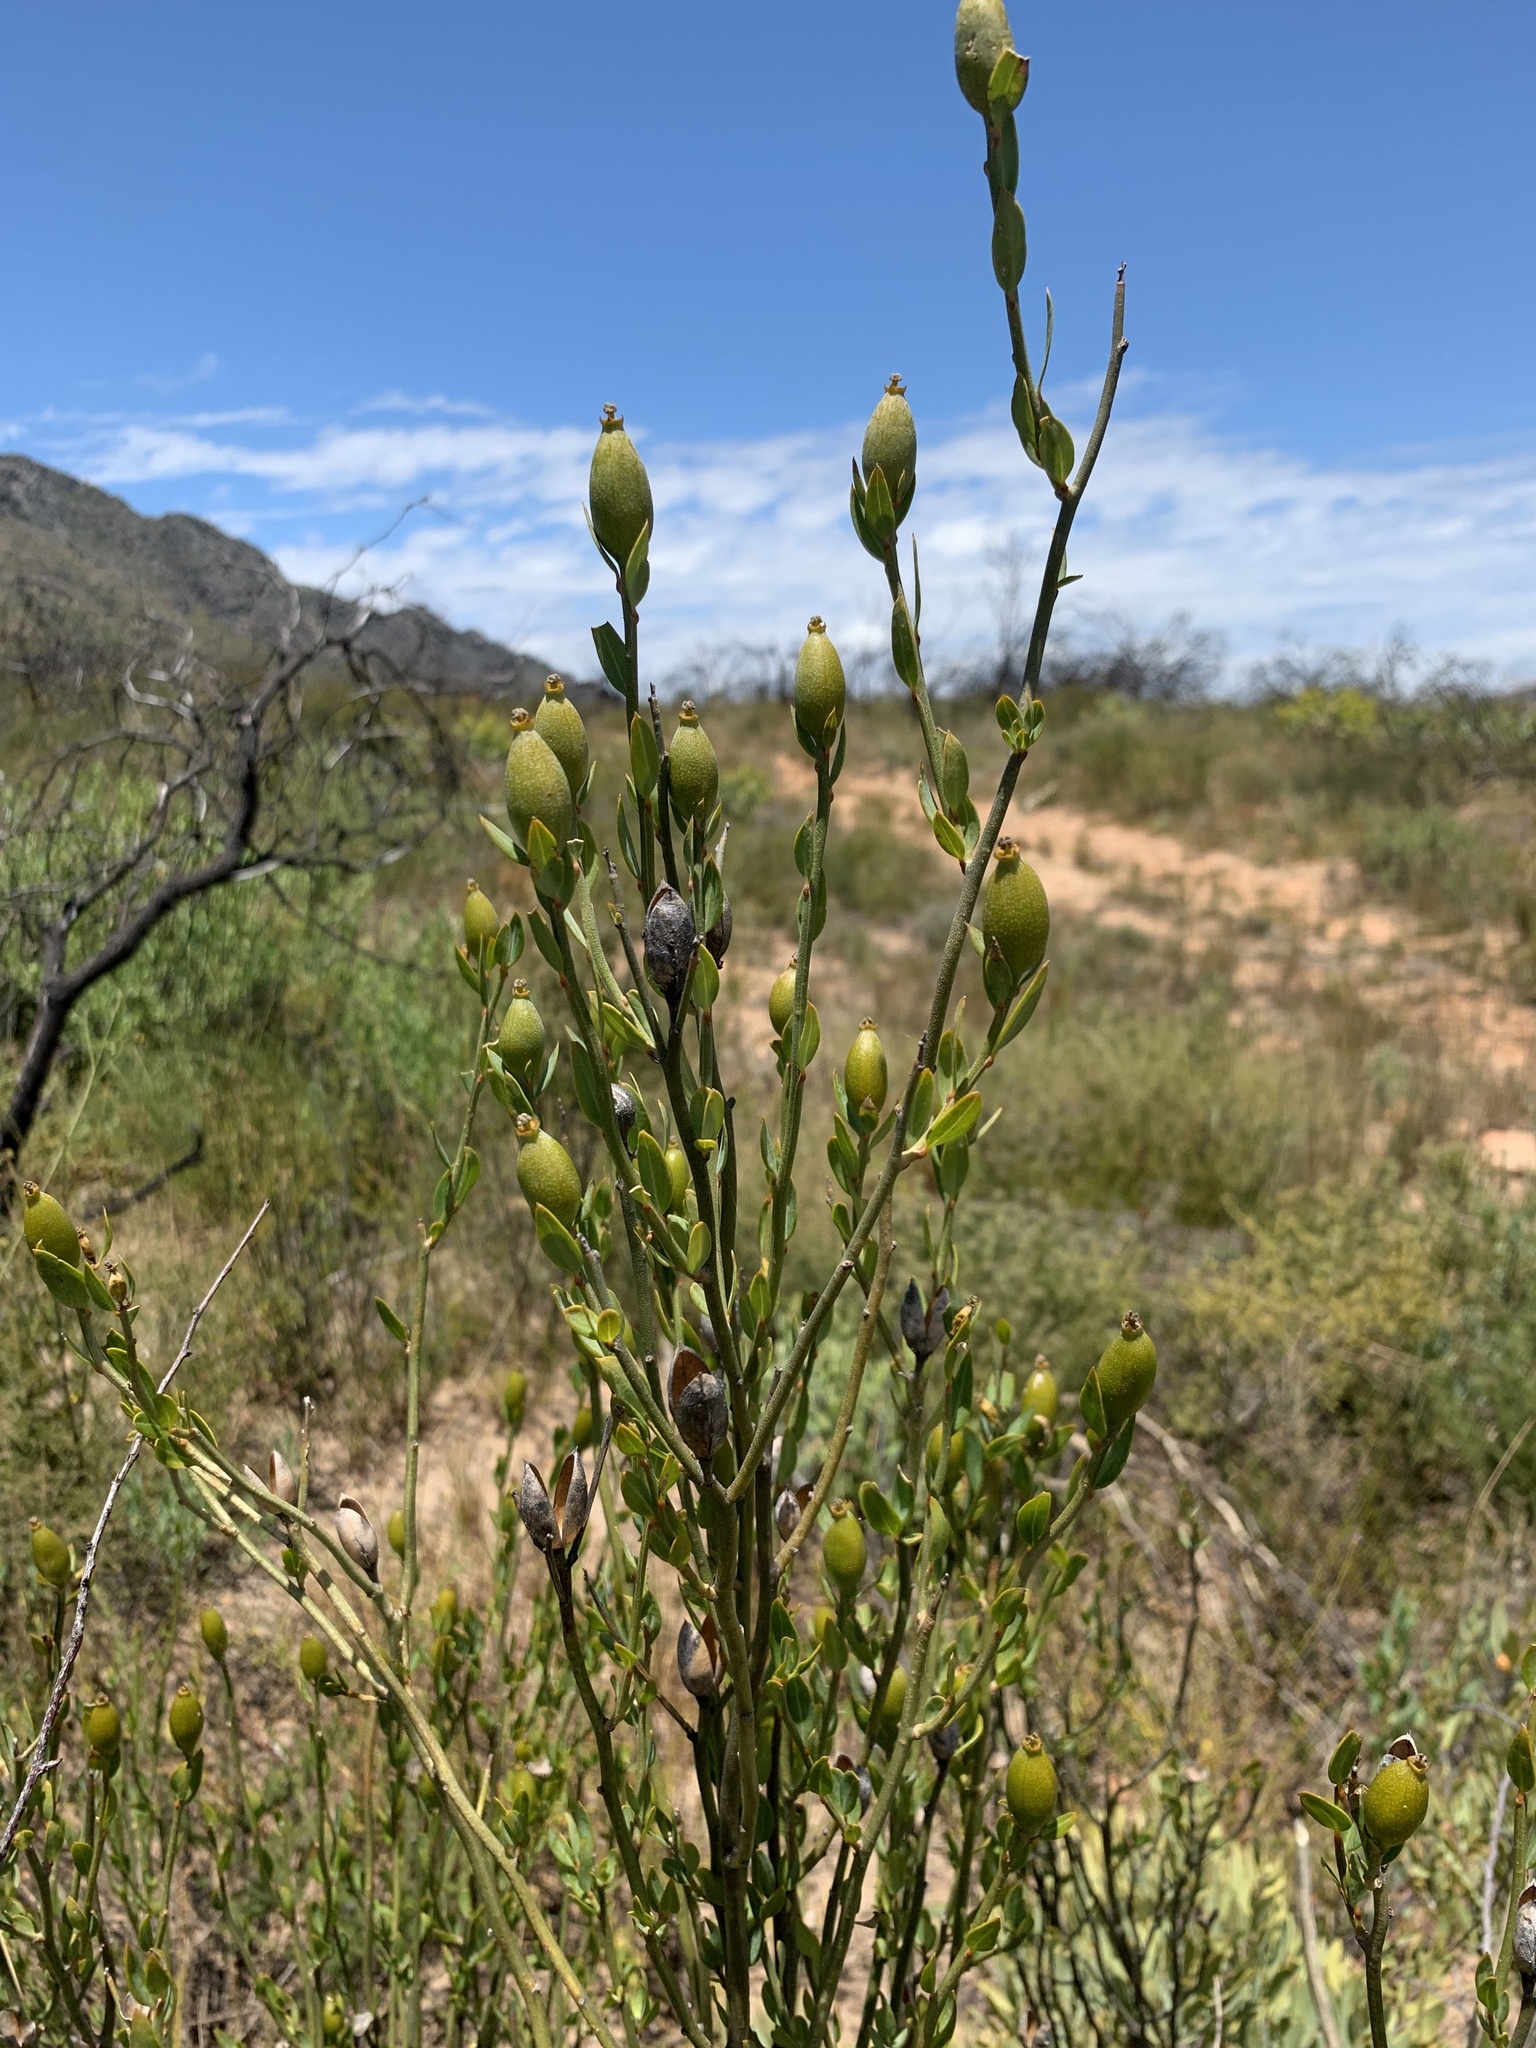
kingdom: Plantae
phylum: Tracheophyta
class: Magnoliopsida
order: Solanales
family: Montiniaceae
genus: Montinia
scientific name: Montinia caryophyllacea
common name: Wild clove-bush
